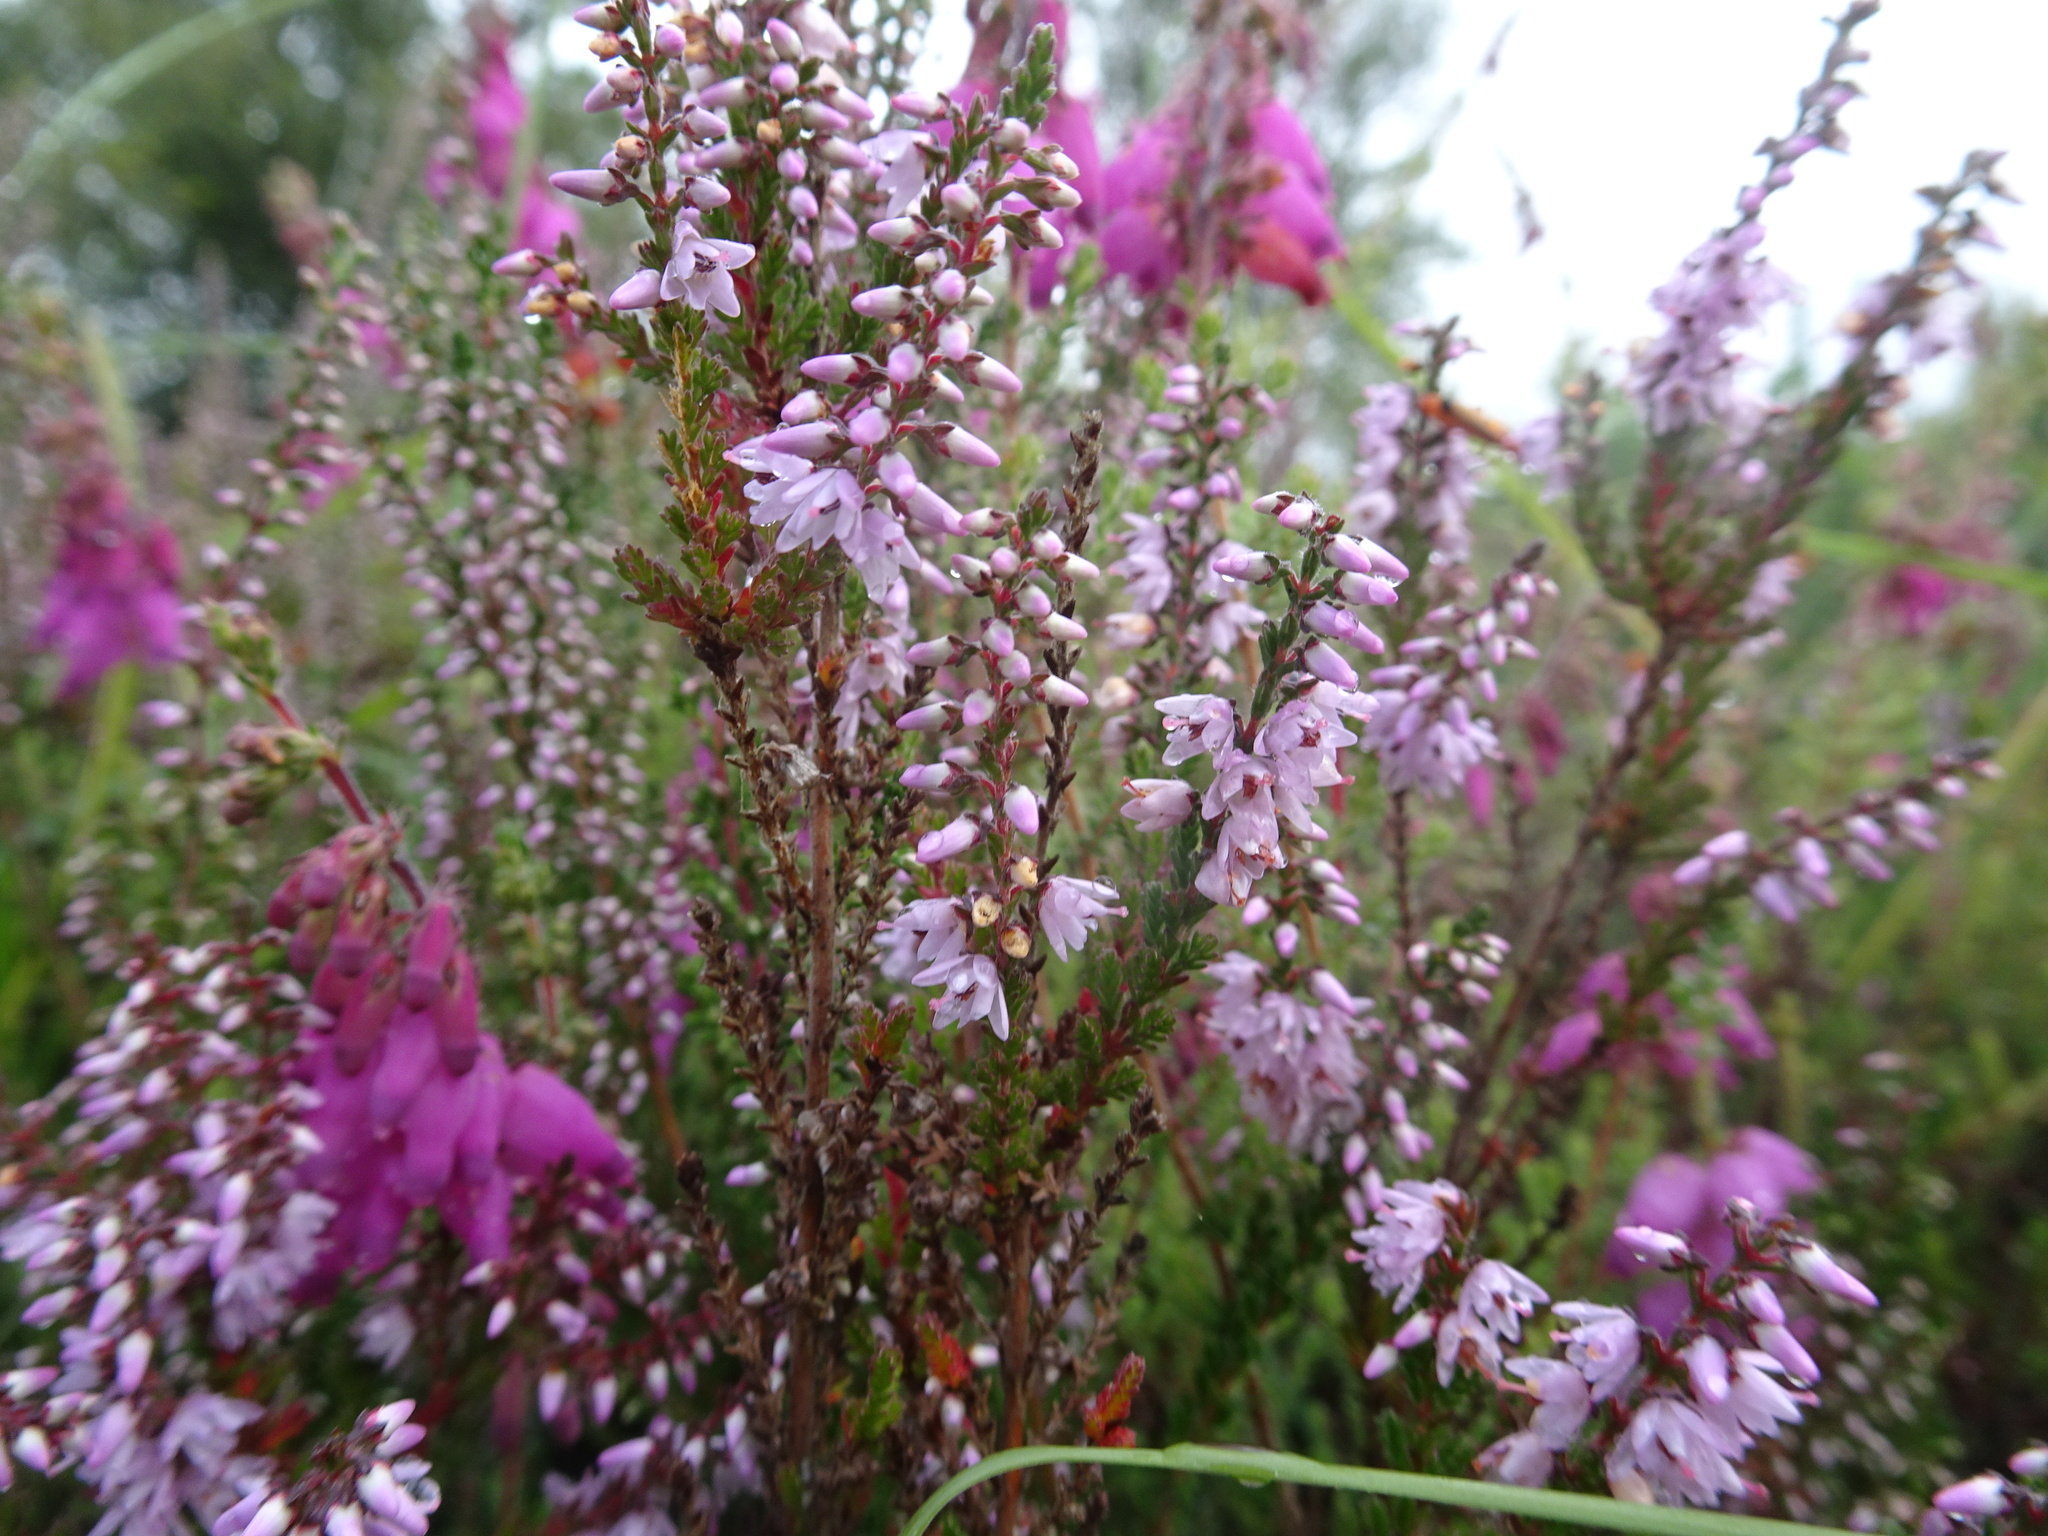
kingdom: Plantae
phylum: Tracheophyta
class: Magnoliopsida
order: Ericales
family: Ericaceae
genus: Calluna
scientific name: Calluna vulgaris
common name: Heather
